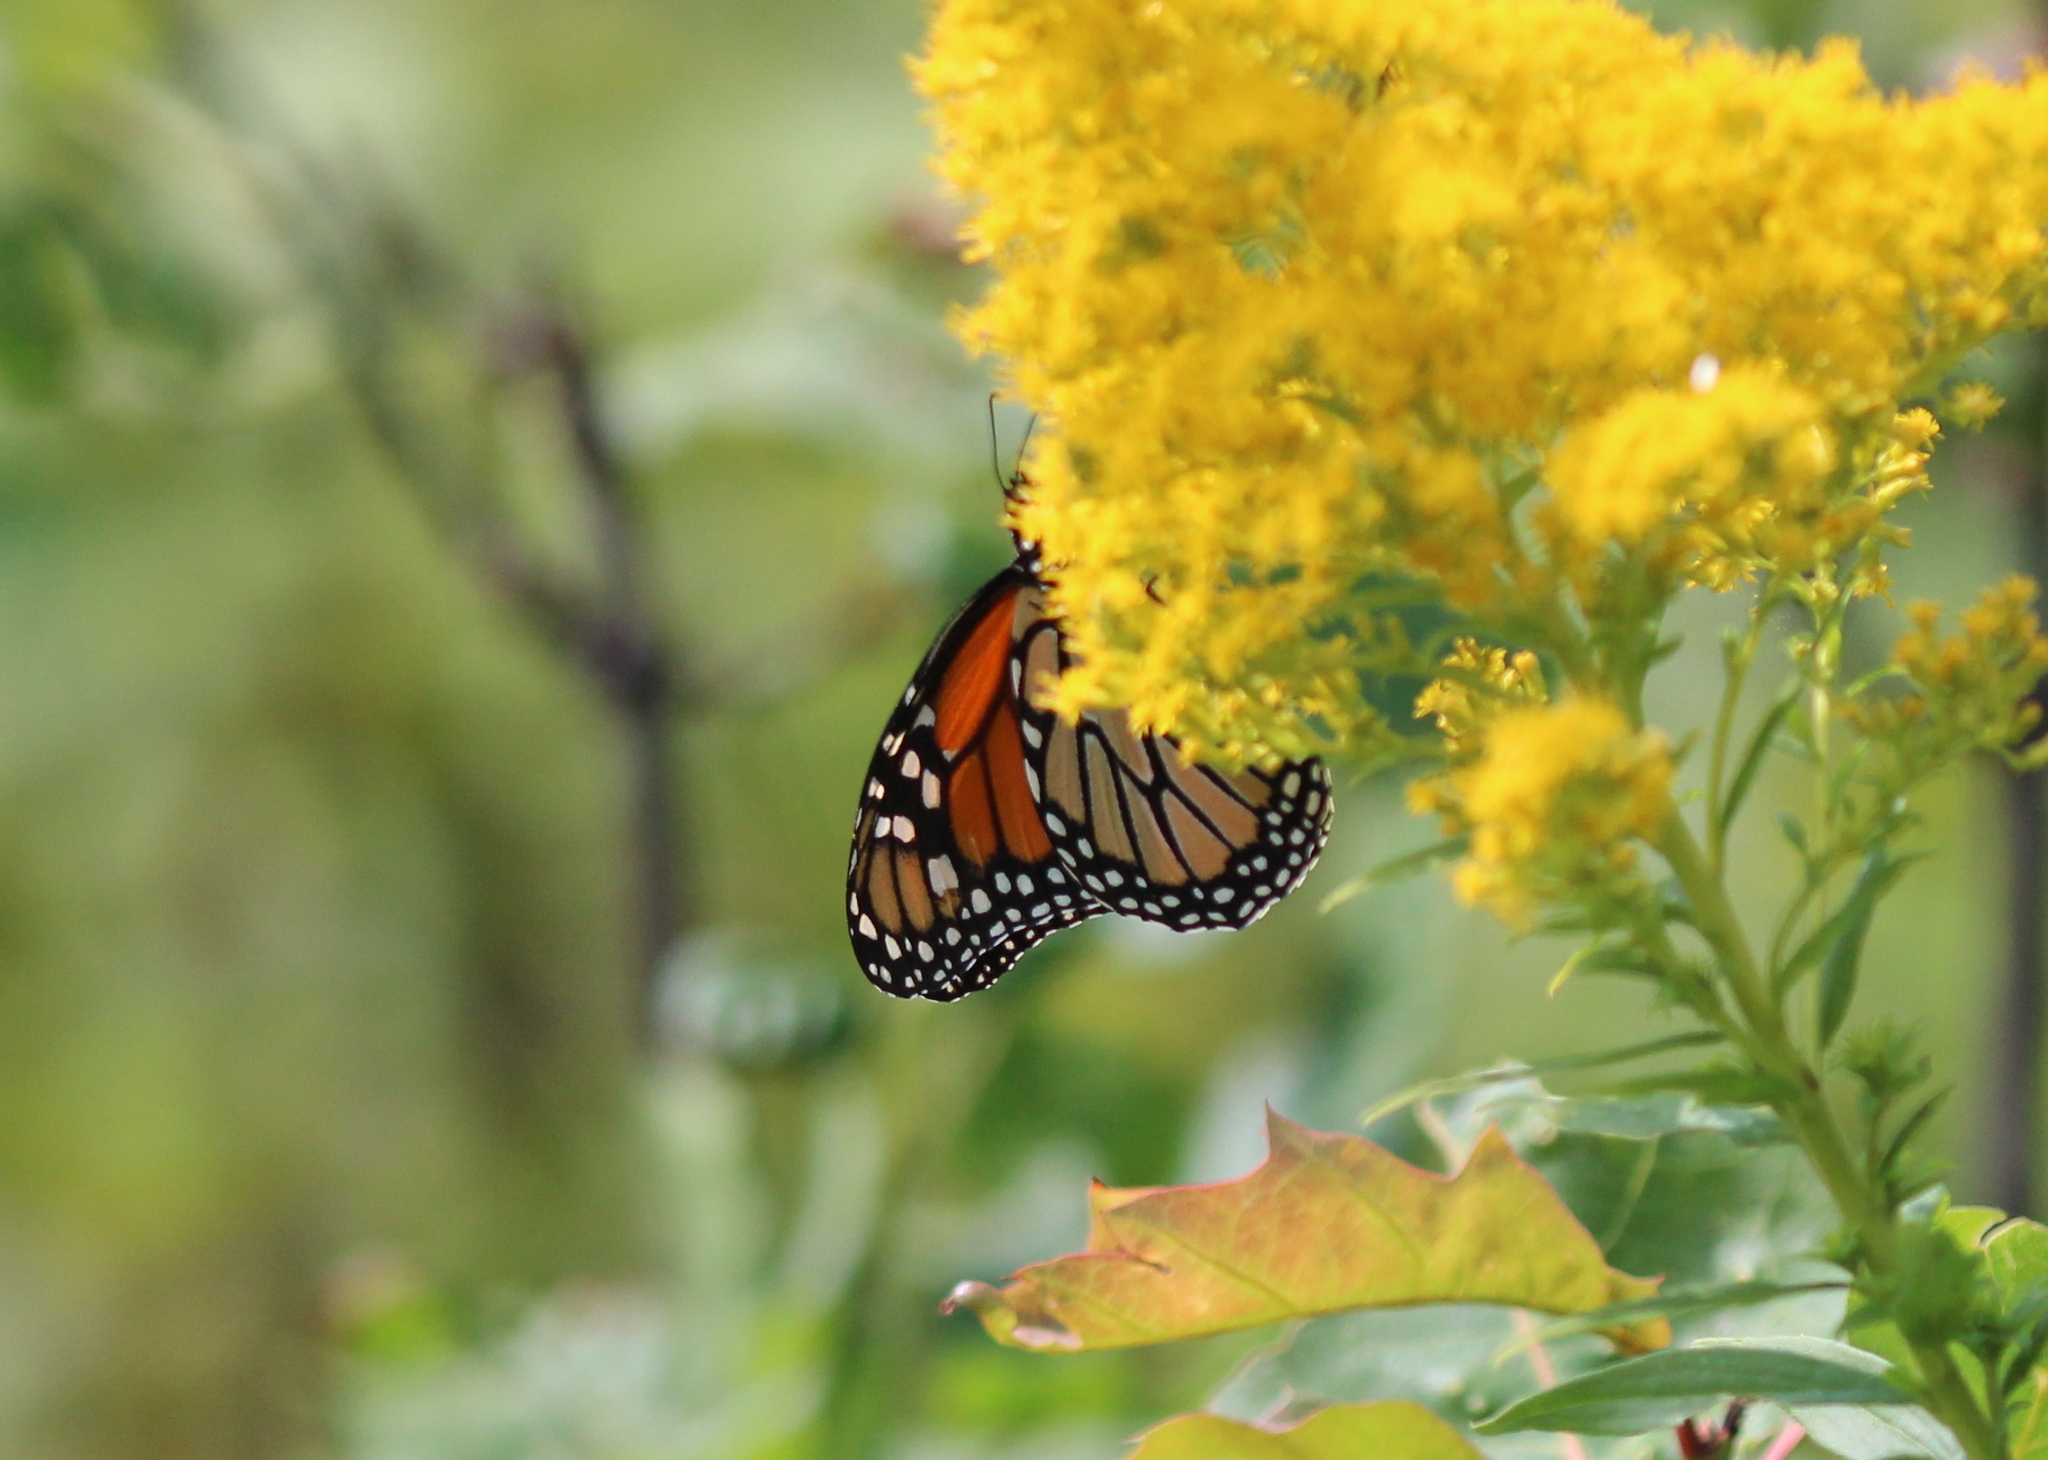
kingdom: Animalia
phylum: Arthropoda
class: Insecta
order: Lepidoptera
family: Nymphalidae
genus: Danaus
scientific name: Danaus plexippus
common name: Monarch
